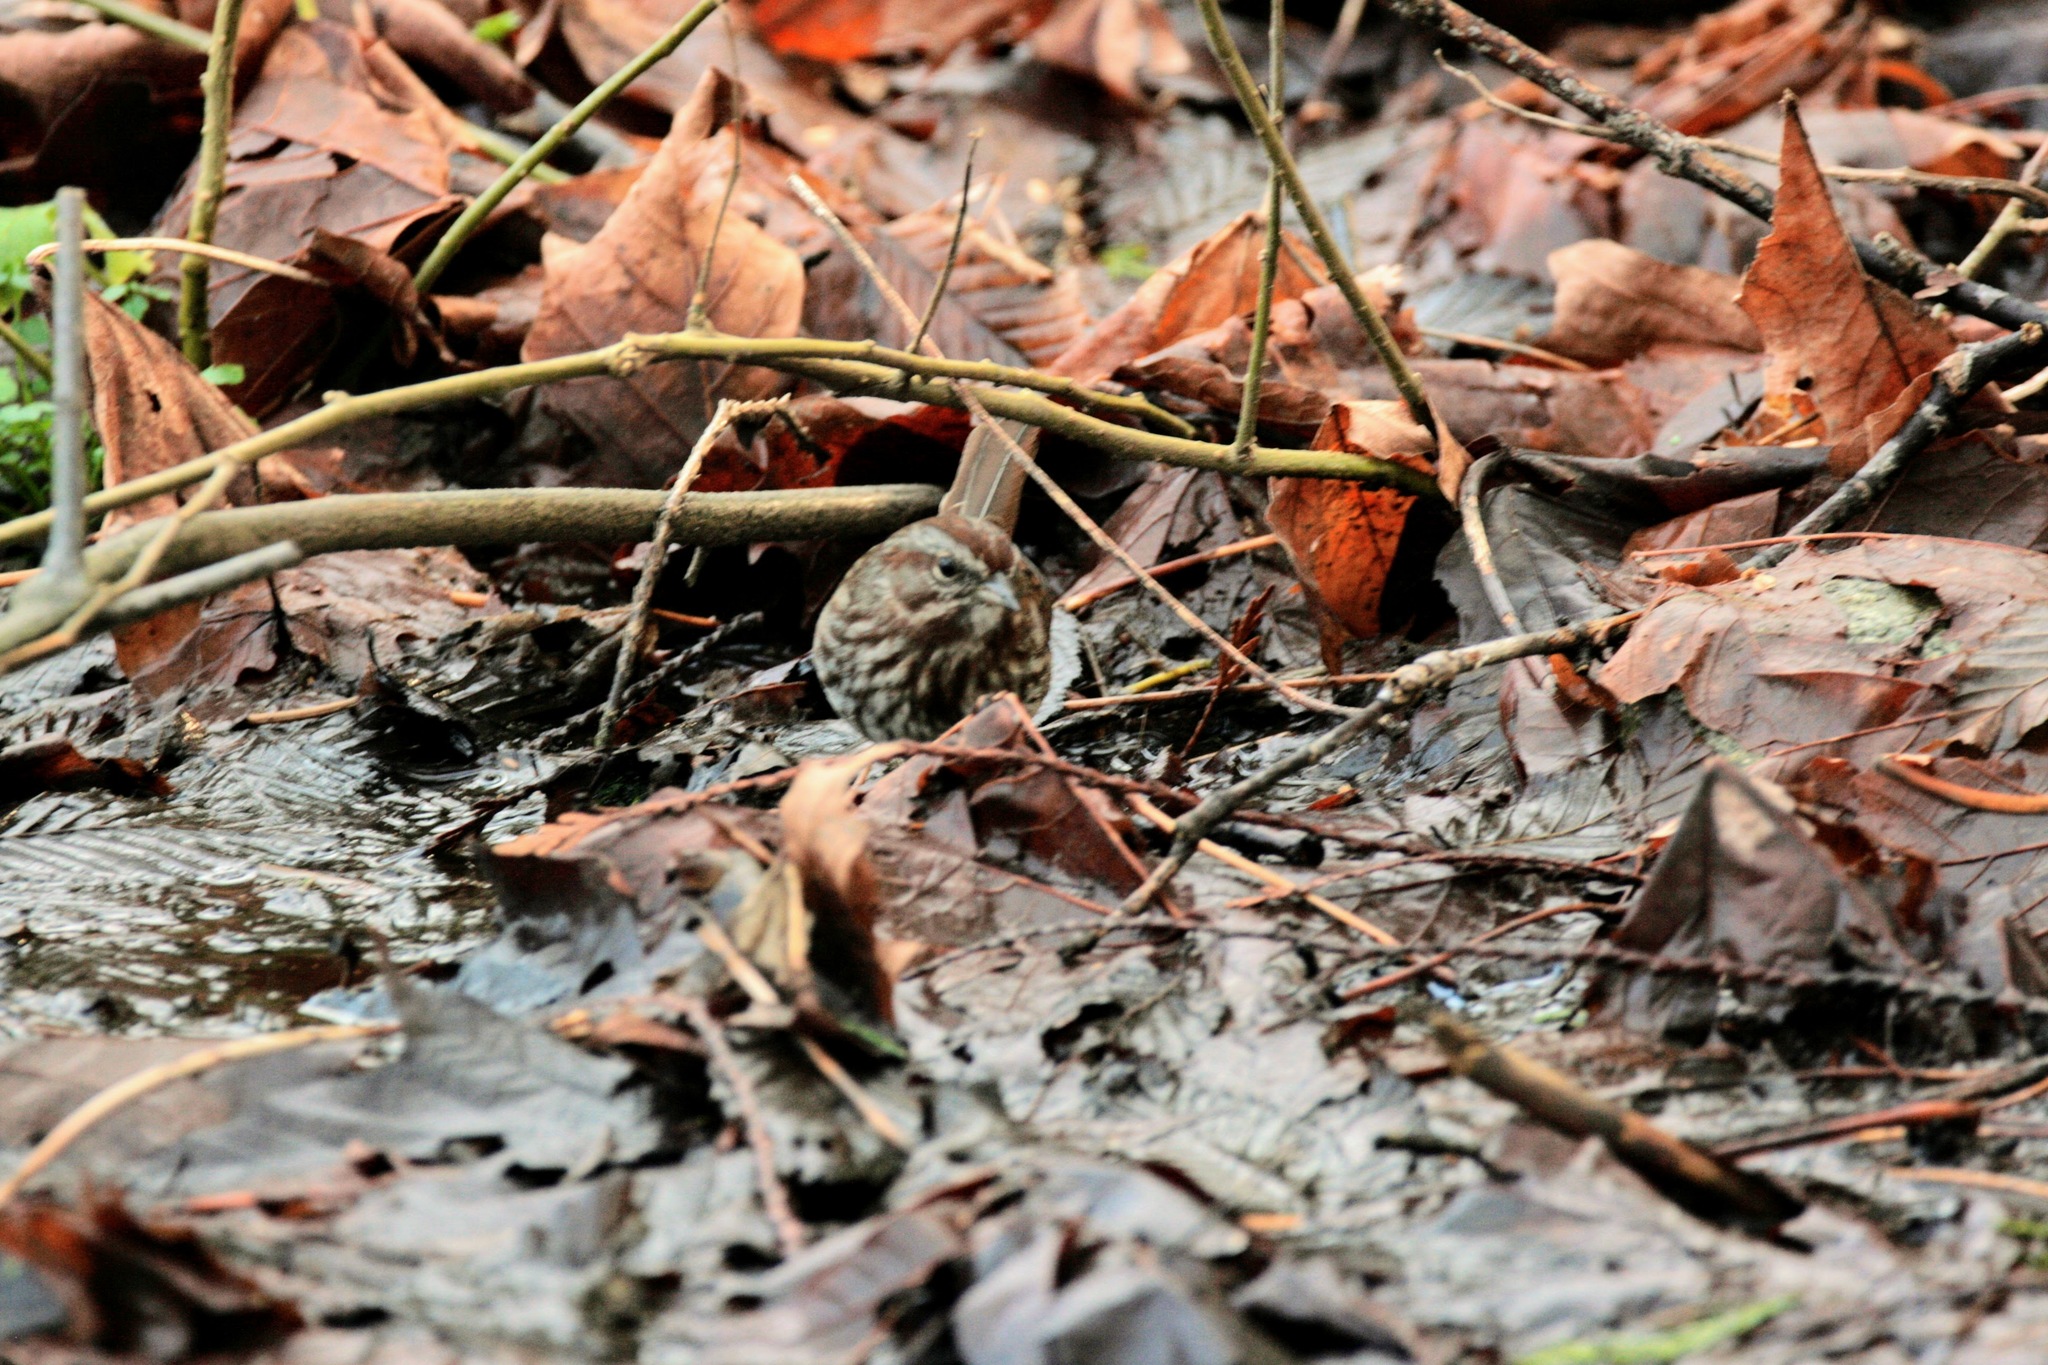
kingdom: Animalia
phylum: Chordata
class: Aves
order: Passeriformes
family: Passerellidae
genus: Melospiza
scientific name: Melospiza melodia
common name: Song sparrow
